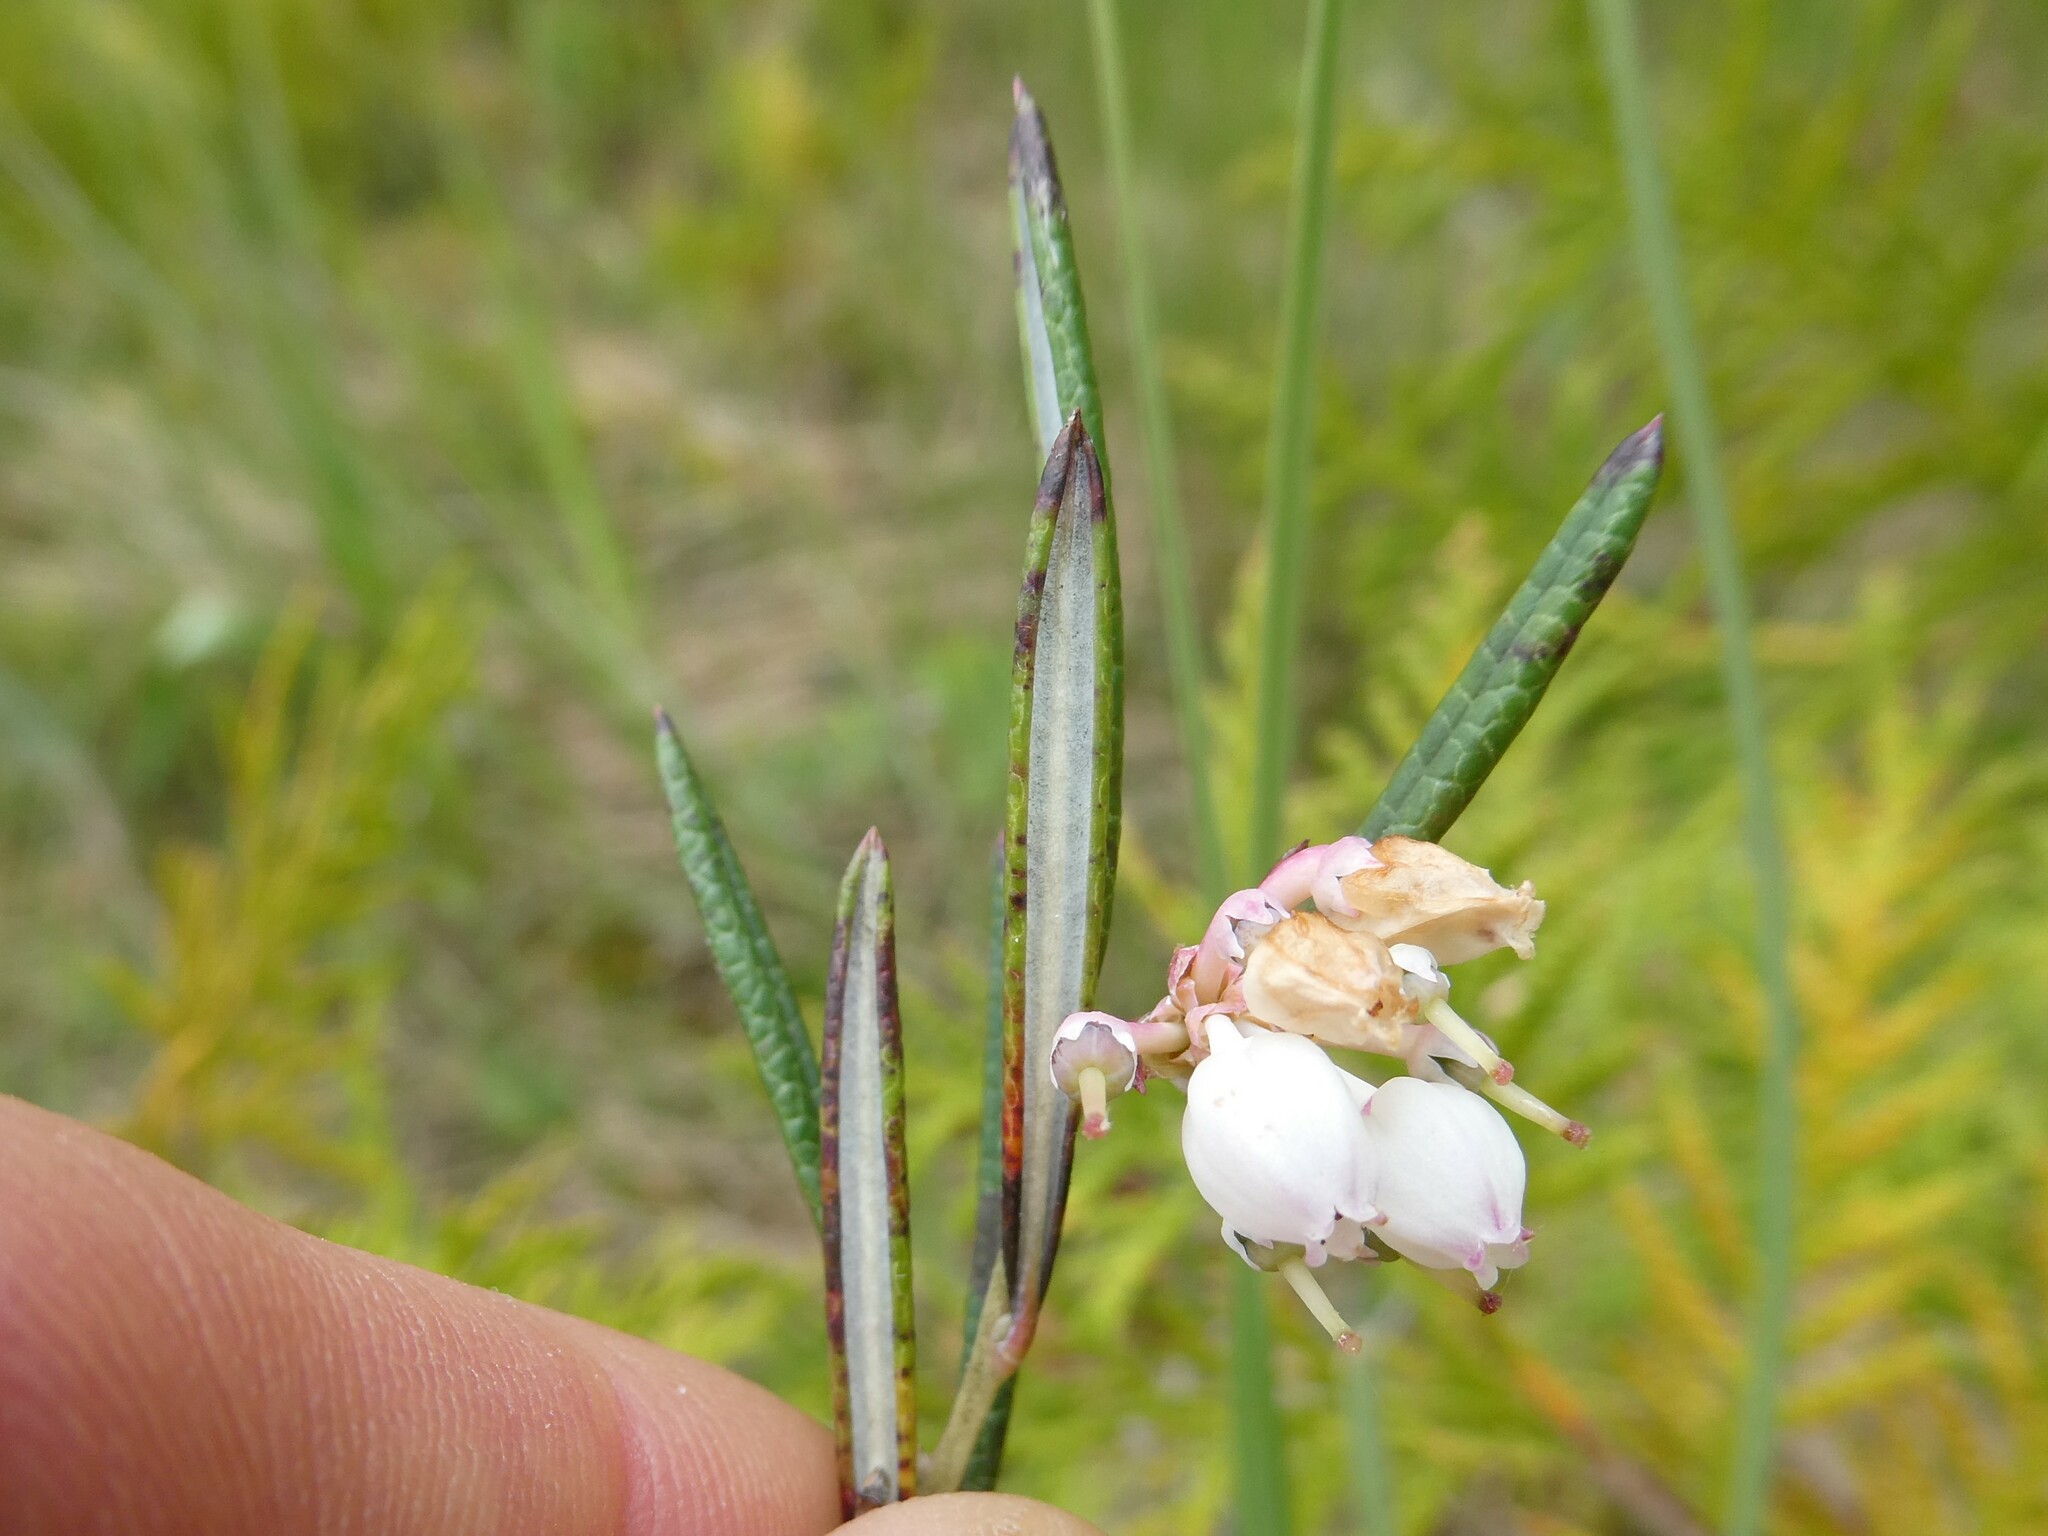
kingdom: Plantae
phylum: Tracheophyta
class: Magnoliopsida
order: Ericales
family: Ericaceae
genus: Andromeda
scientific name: Andromeda polifolia
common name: Bog-rosemary
